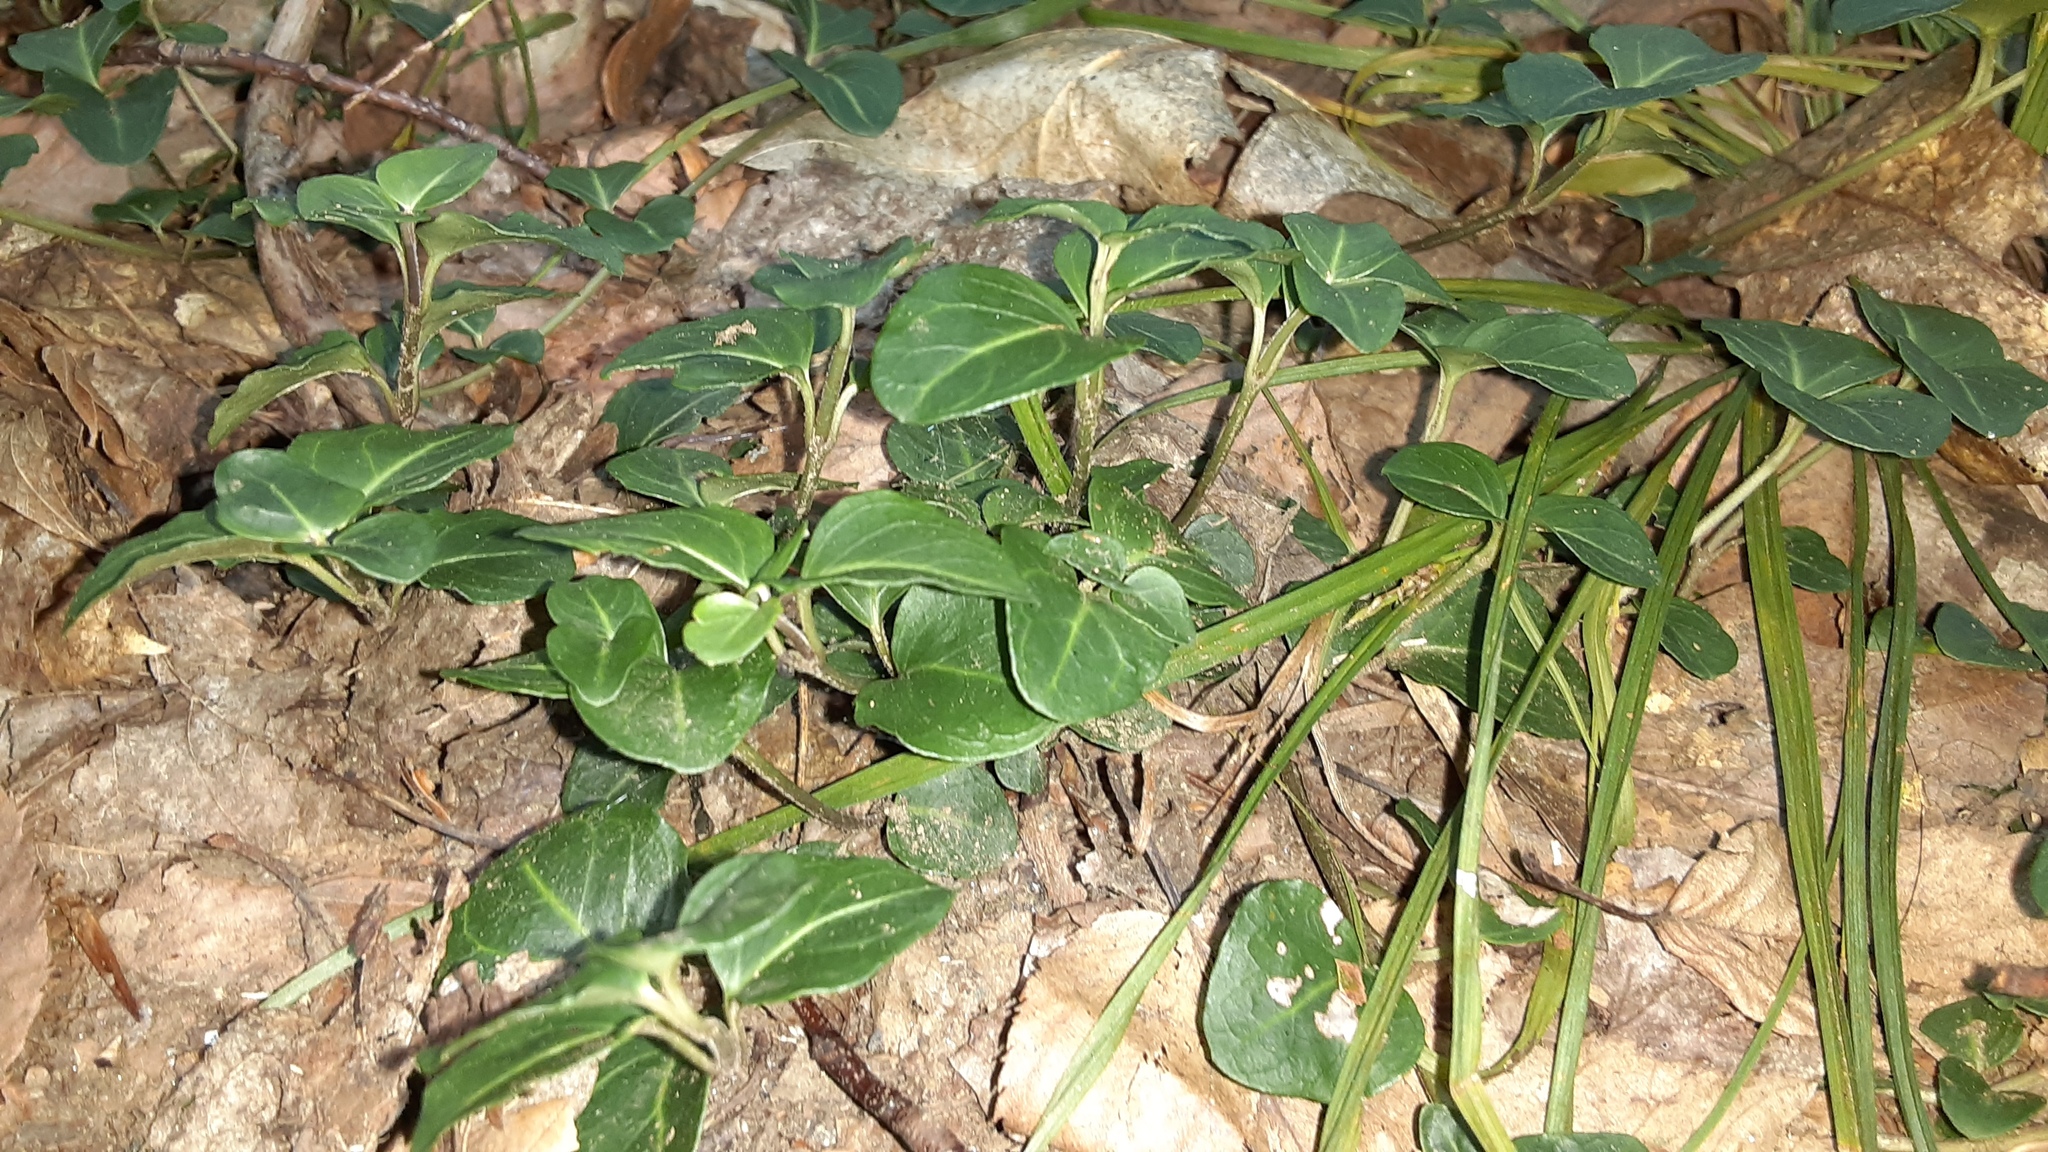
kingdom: Plantae
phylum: Tracheophyta
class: Magnoliopsida
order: Gentianales
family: Rubiaceae
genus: Mitchella
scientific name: Mitchella repens
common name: Partridge-berry
